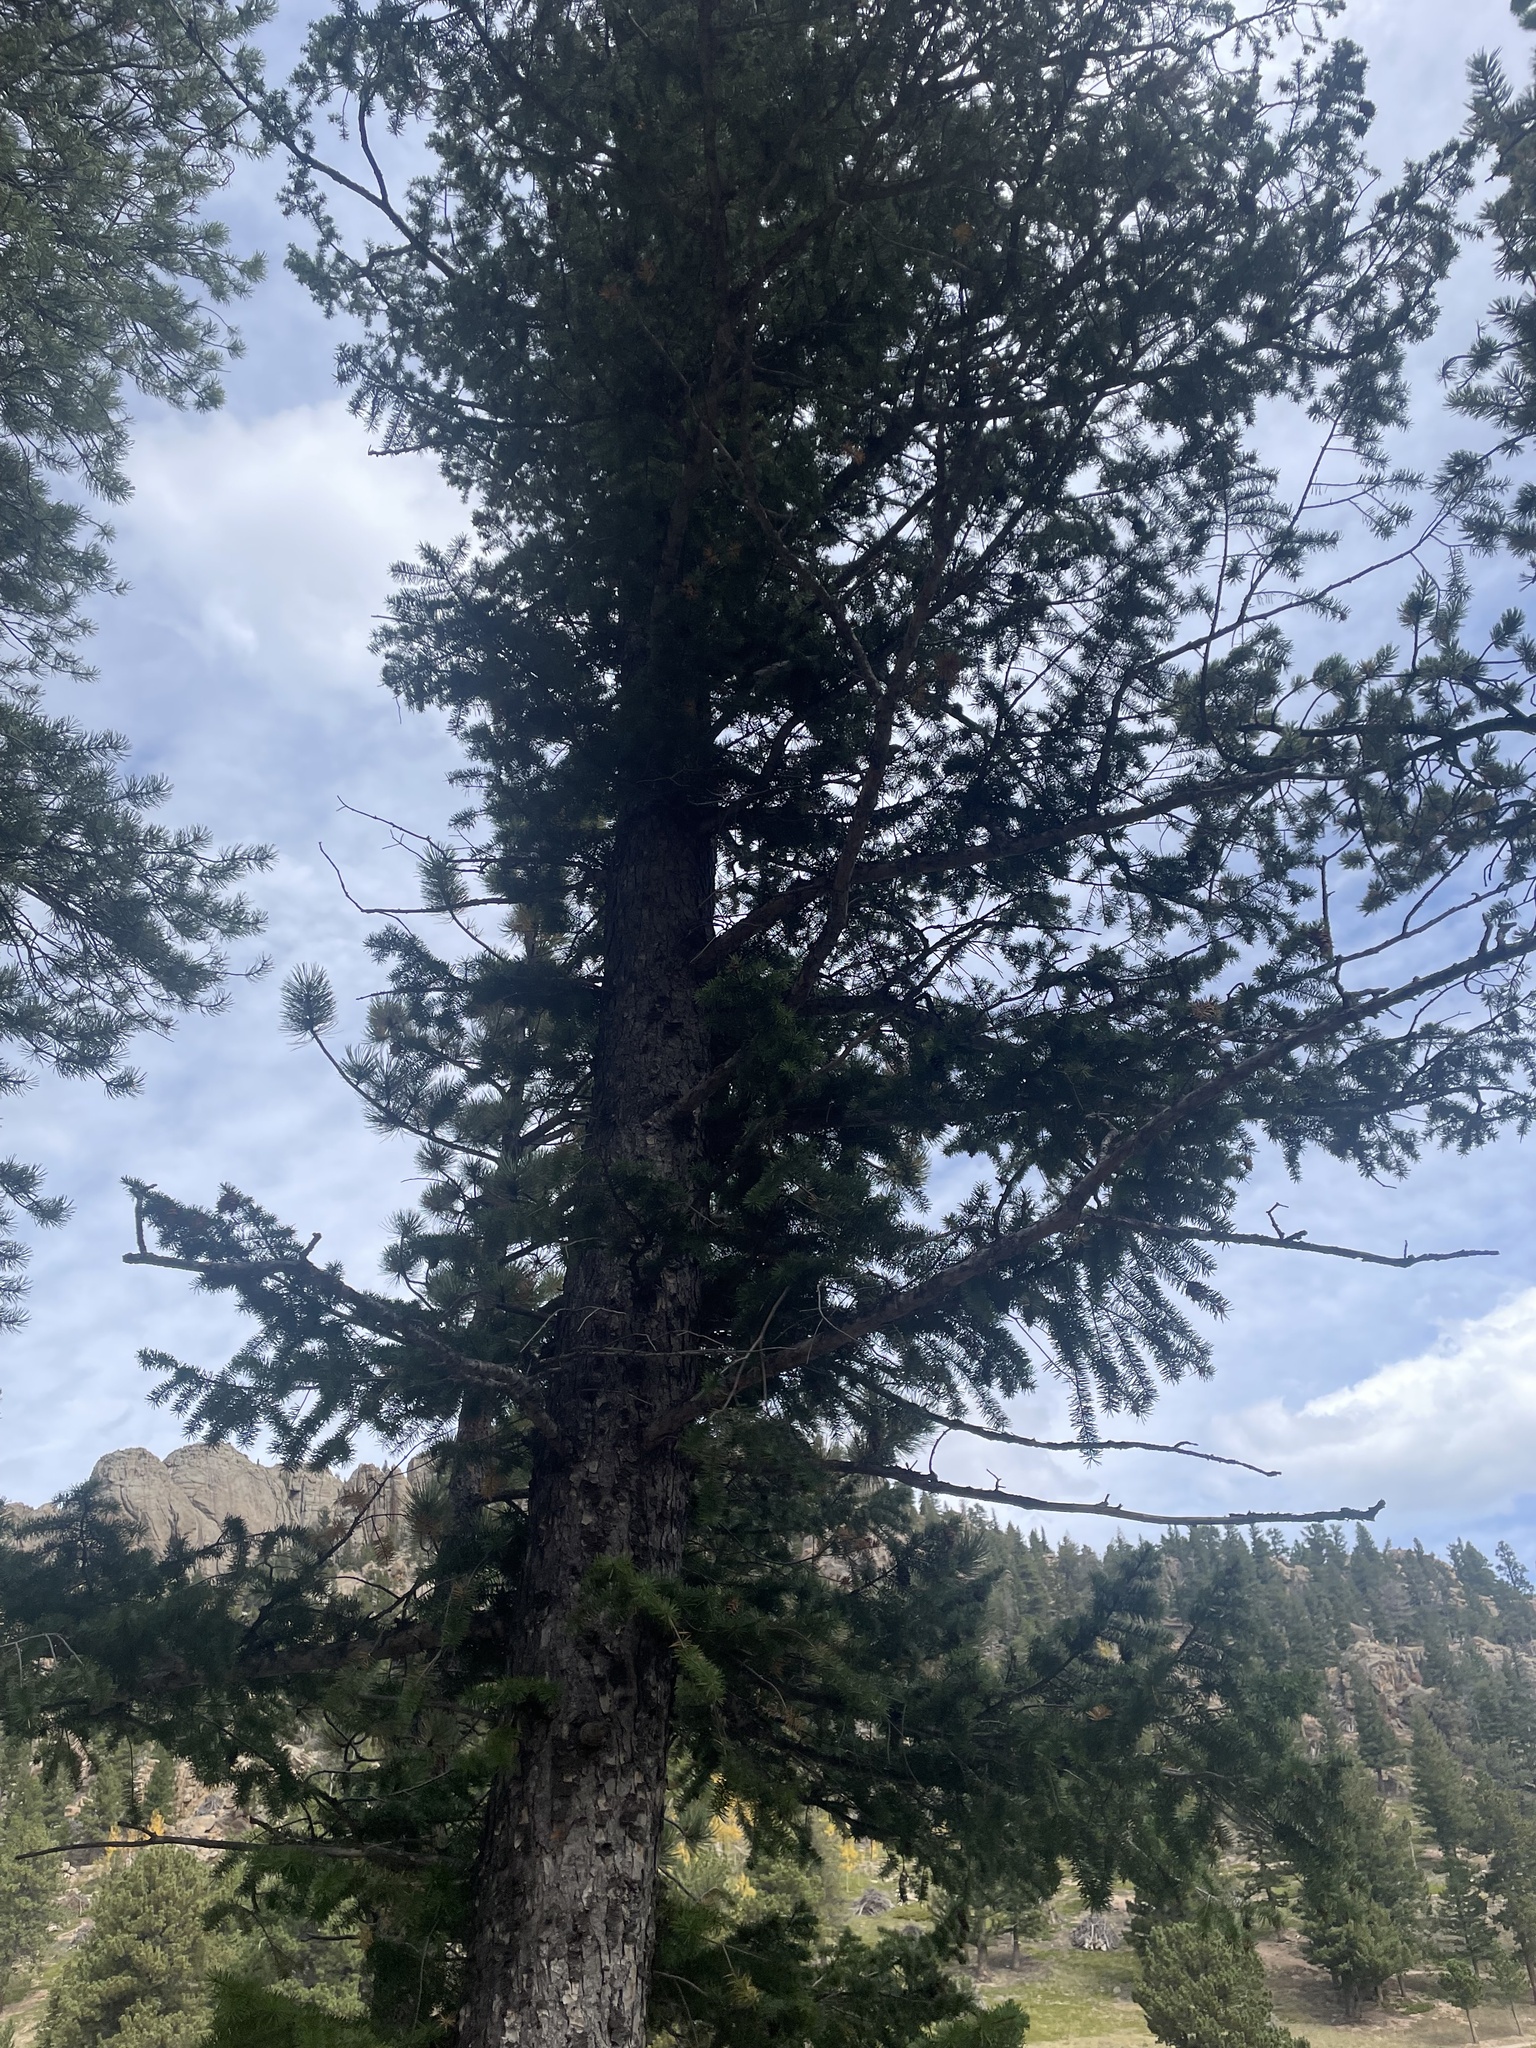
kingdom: Plantae
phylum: Tracheophyta
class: Pinopsida
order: Pinales
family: Pinaceae
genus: Pseudotsuga
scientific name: Pseudotsuga menziesii
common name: Douglas fir
